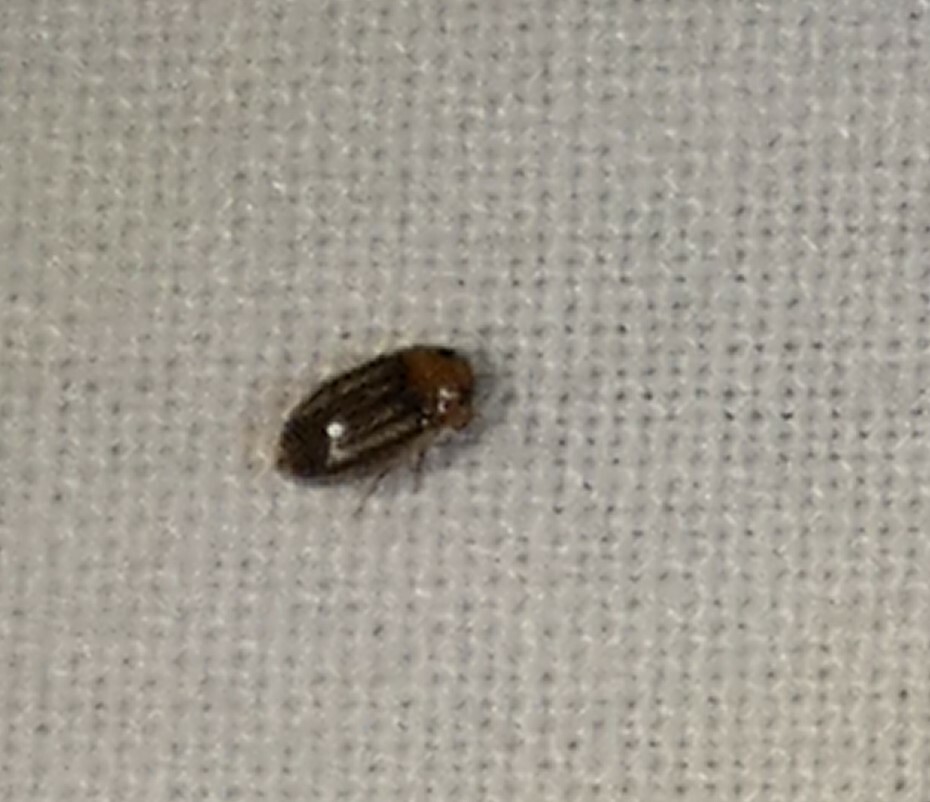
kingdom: Animalia
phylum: Arthropoda
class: Insecta
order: Coleoptera
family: Dytiscidae
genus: Neobidessus
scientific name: Neobidessus pullus
